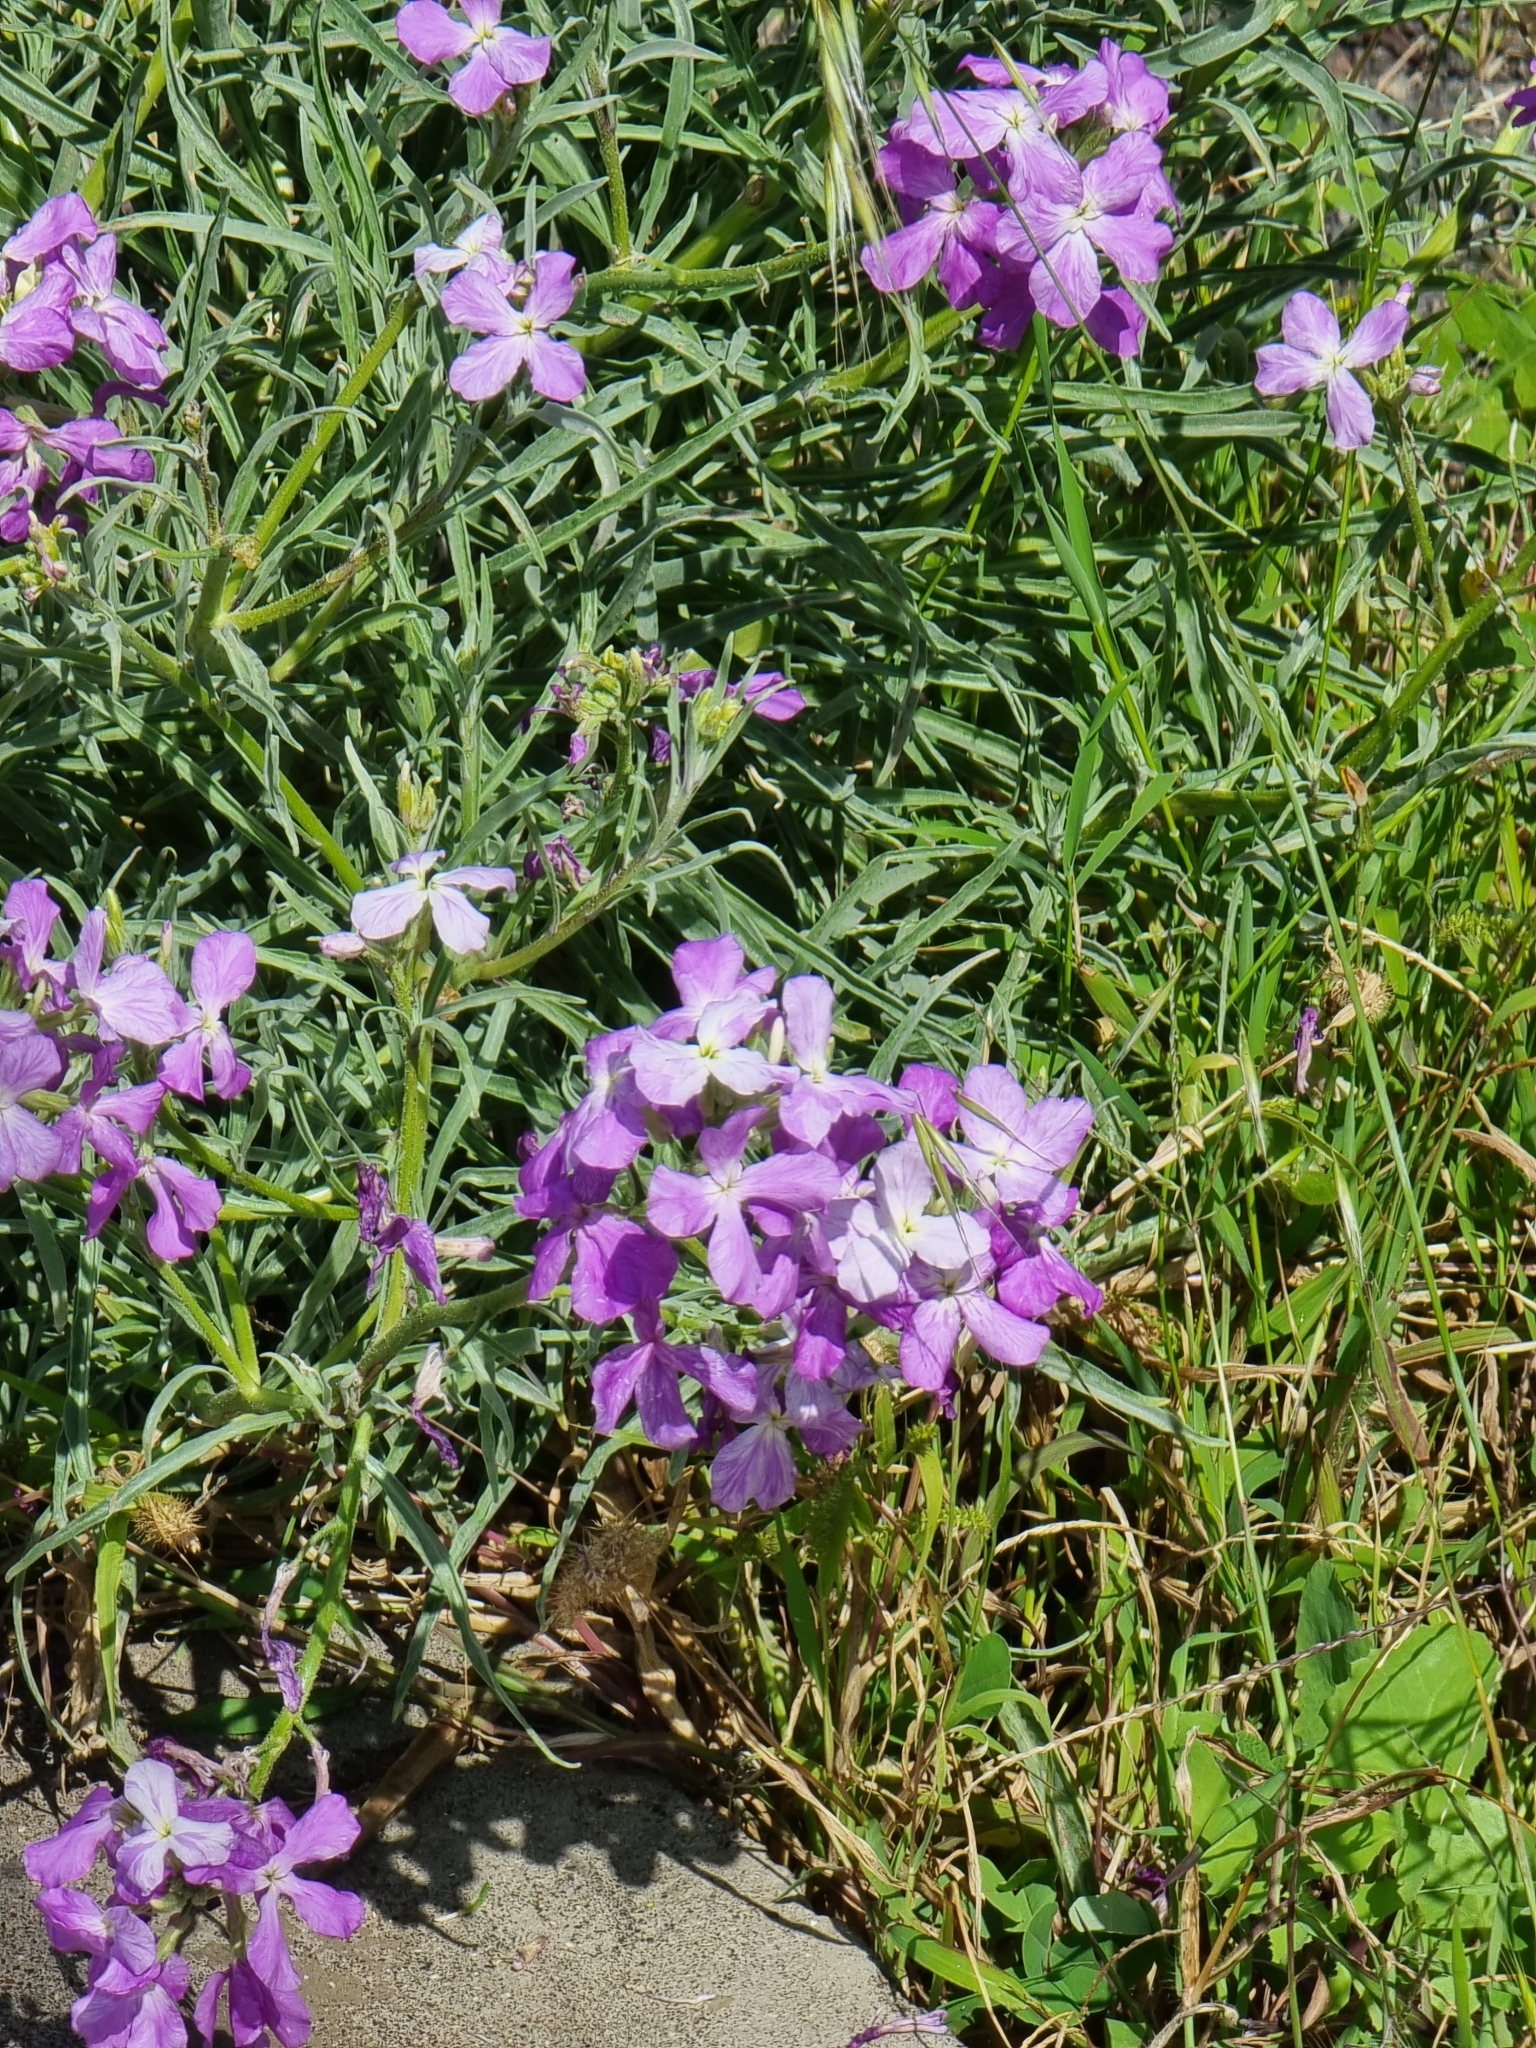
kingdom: Plantae
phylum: Tracheophyta
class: Magnoliopsida
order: Brassicales
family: Brassicaceae
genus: Matthiola
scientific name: Matthiola maderensis
